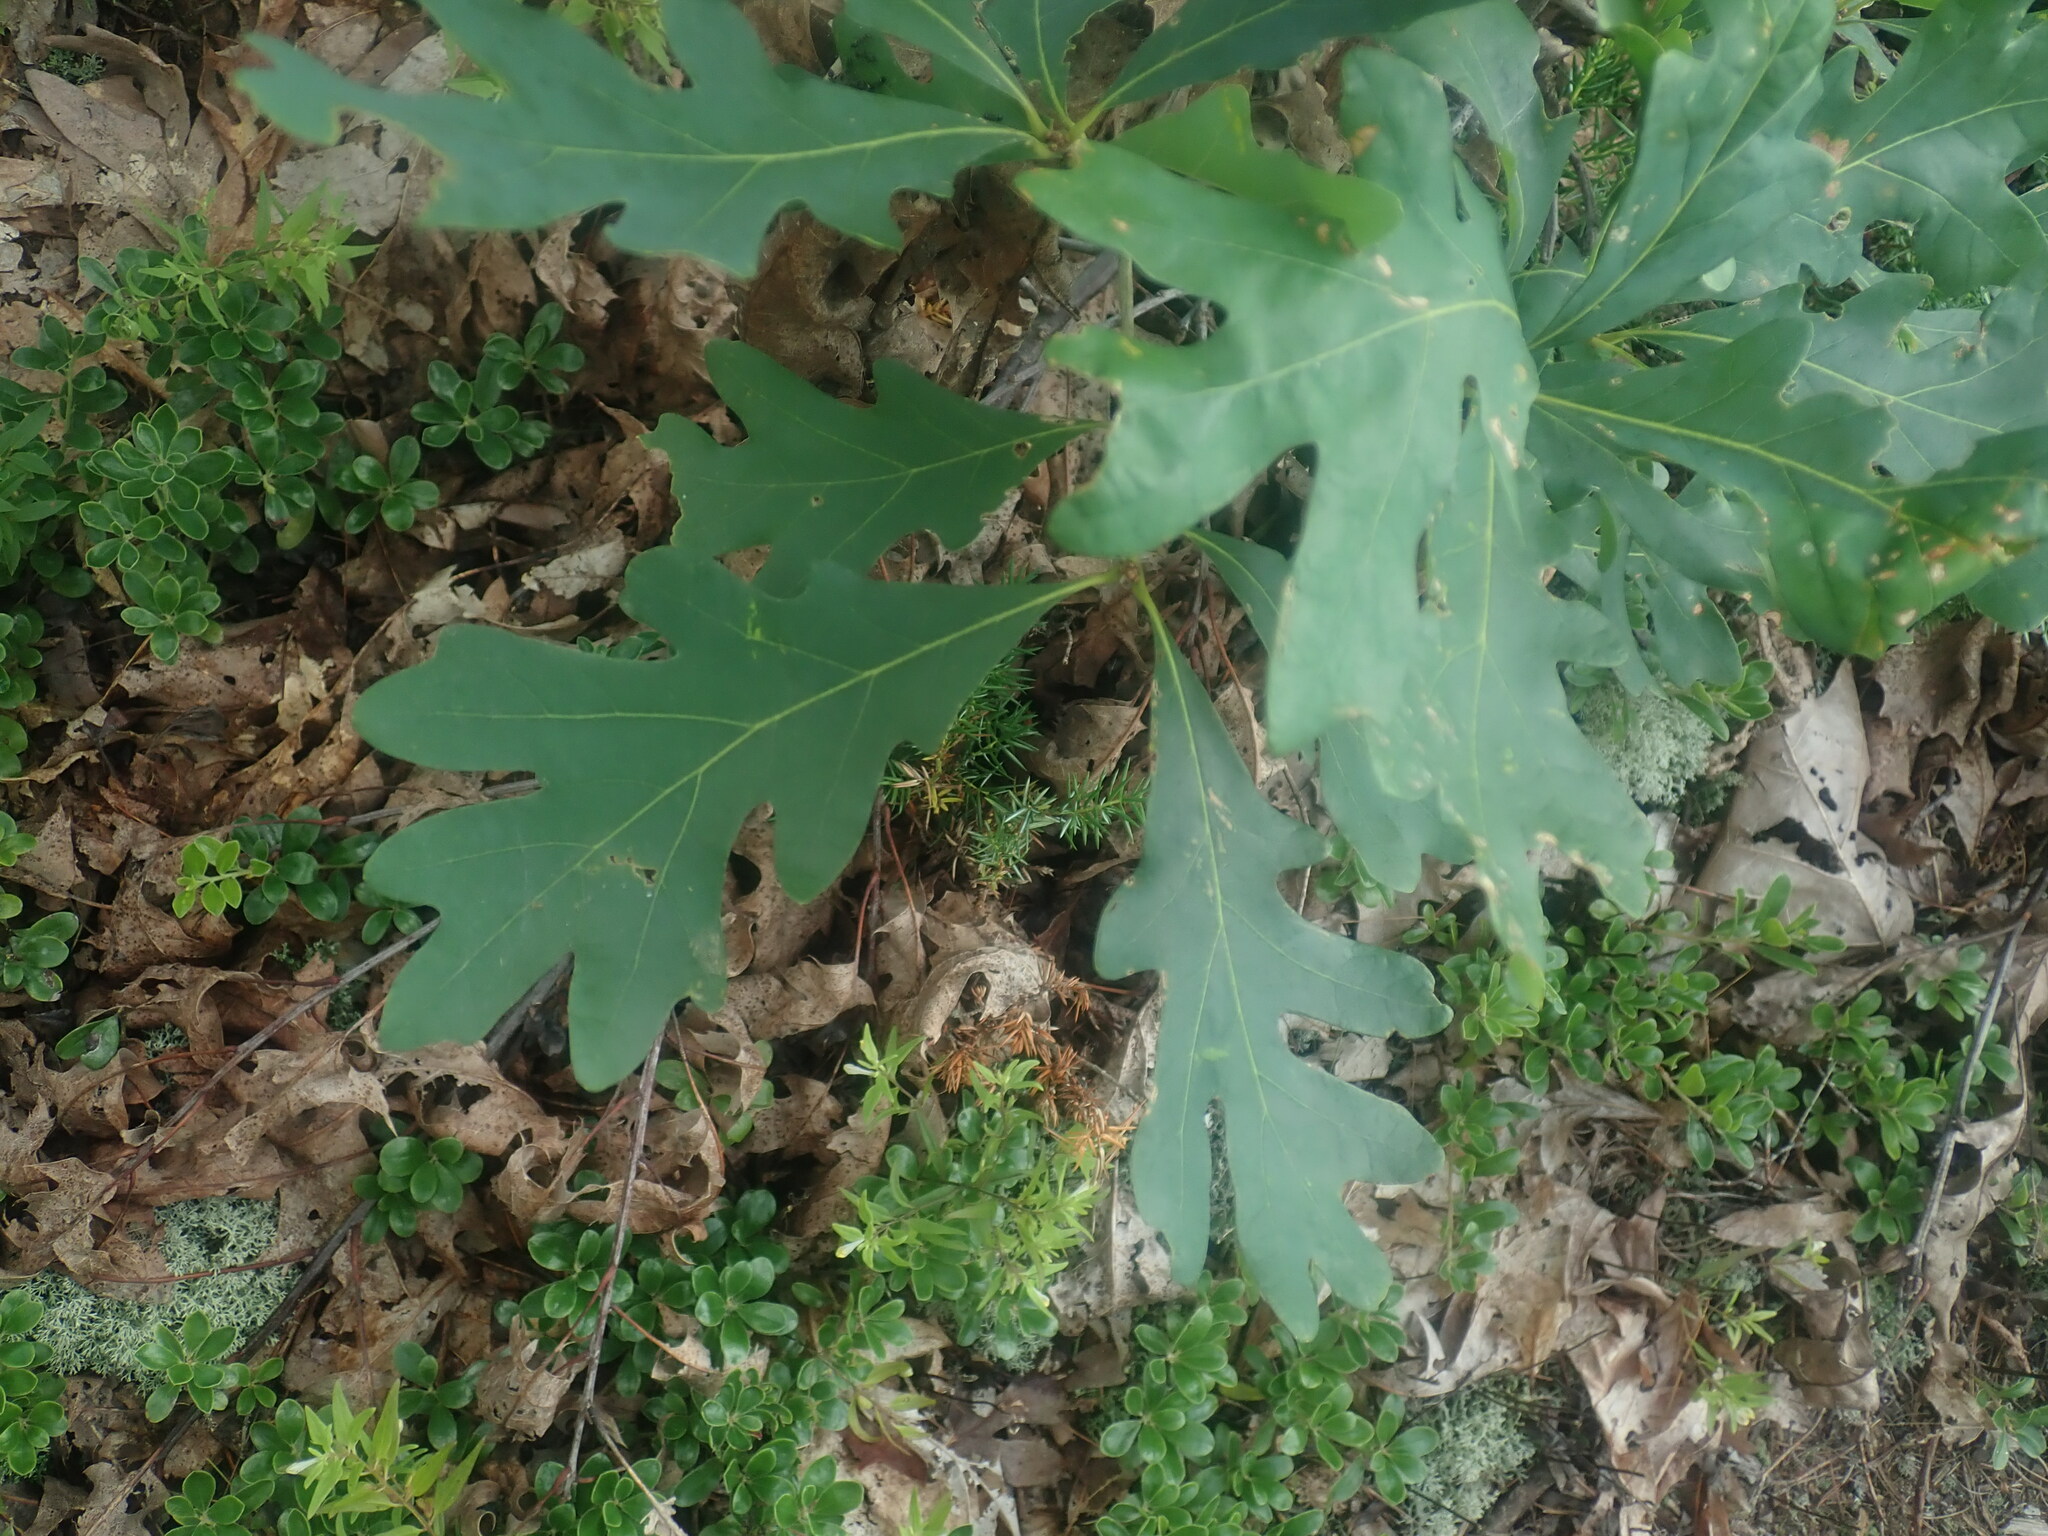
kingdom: Plantae
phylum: Tracheophyta
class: Magnoliopsida
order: Fagales
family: Fagaceae
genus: Quercus
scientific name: Quercus alba
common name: White oak
